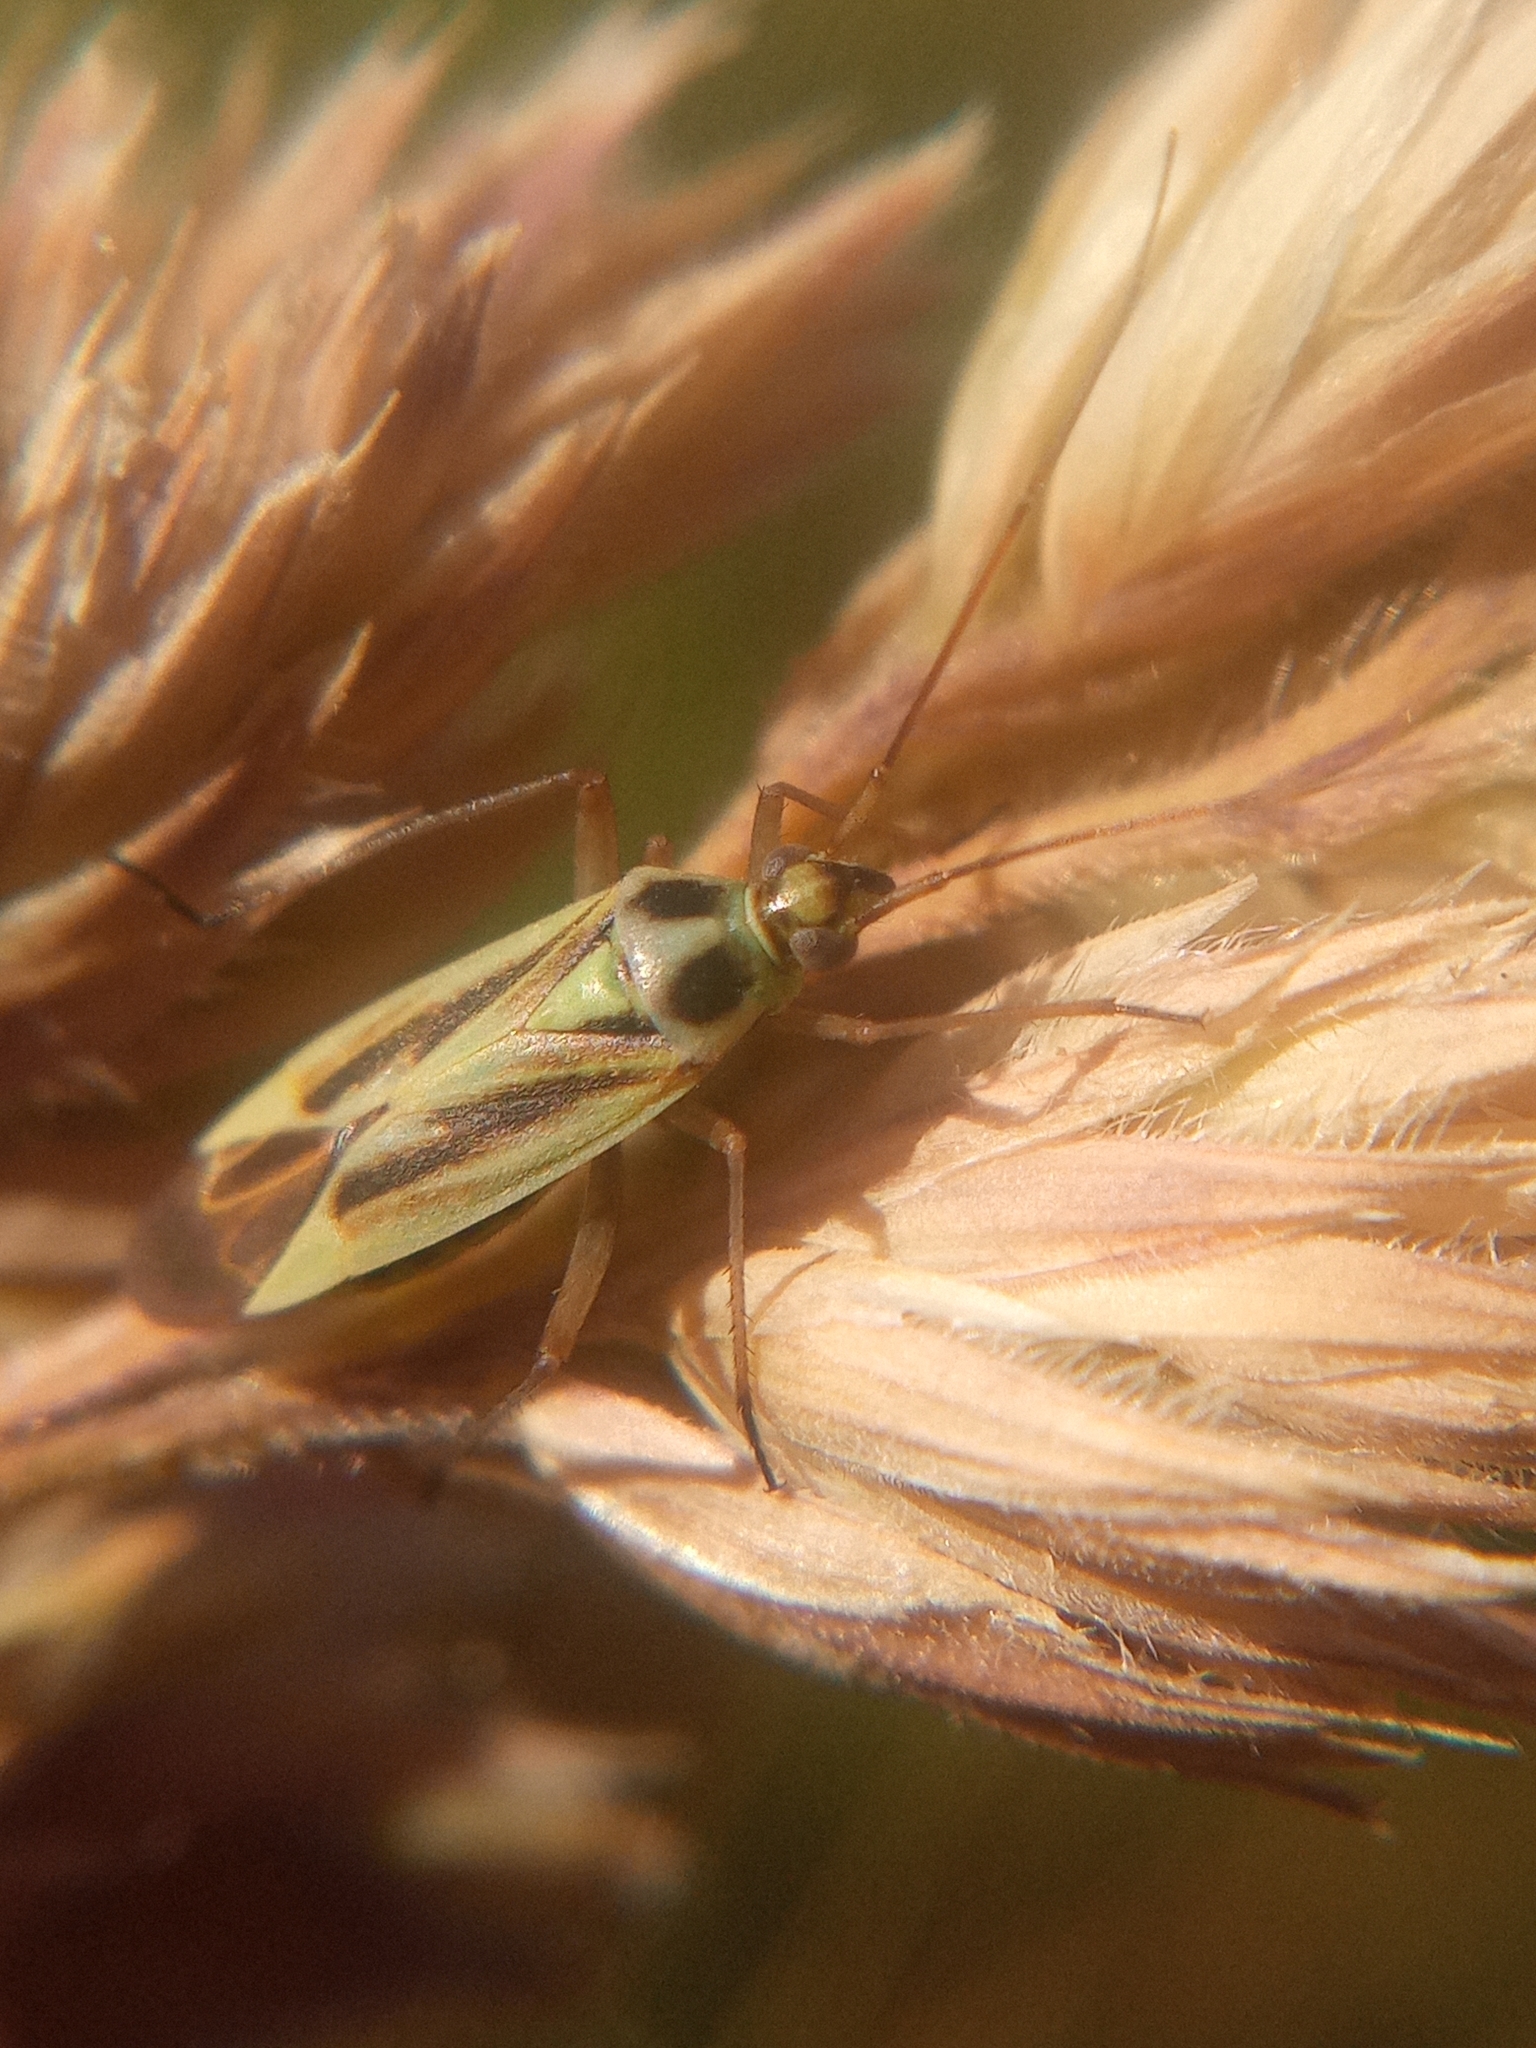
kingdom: Animalia
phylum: Arthropoda
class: Insecta
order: Hemiptera
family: Miridae
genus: Stenotus
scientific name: Stenotus binotatus
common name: Plant bug
